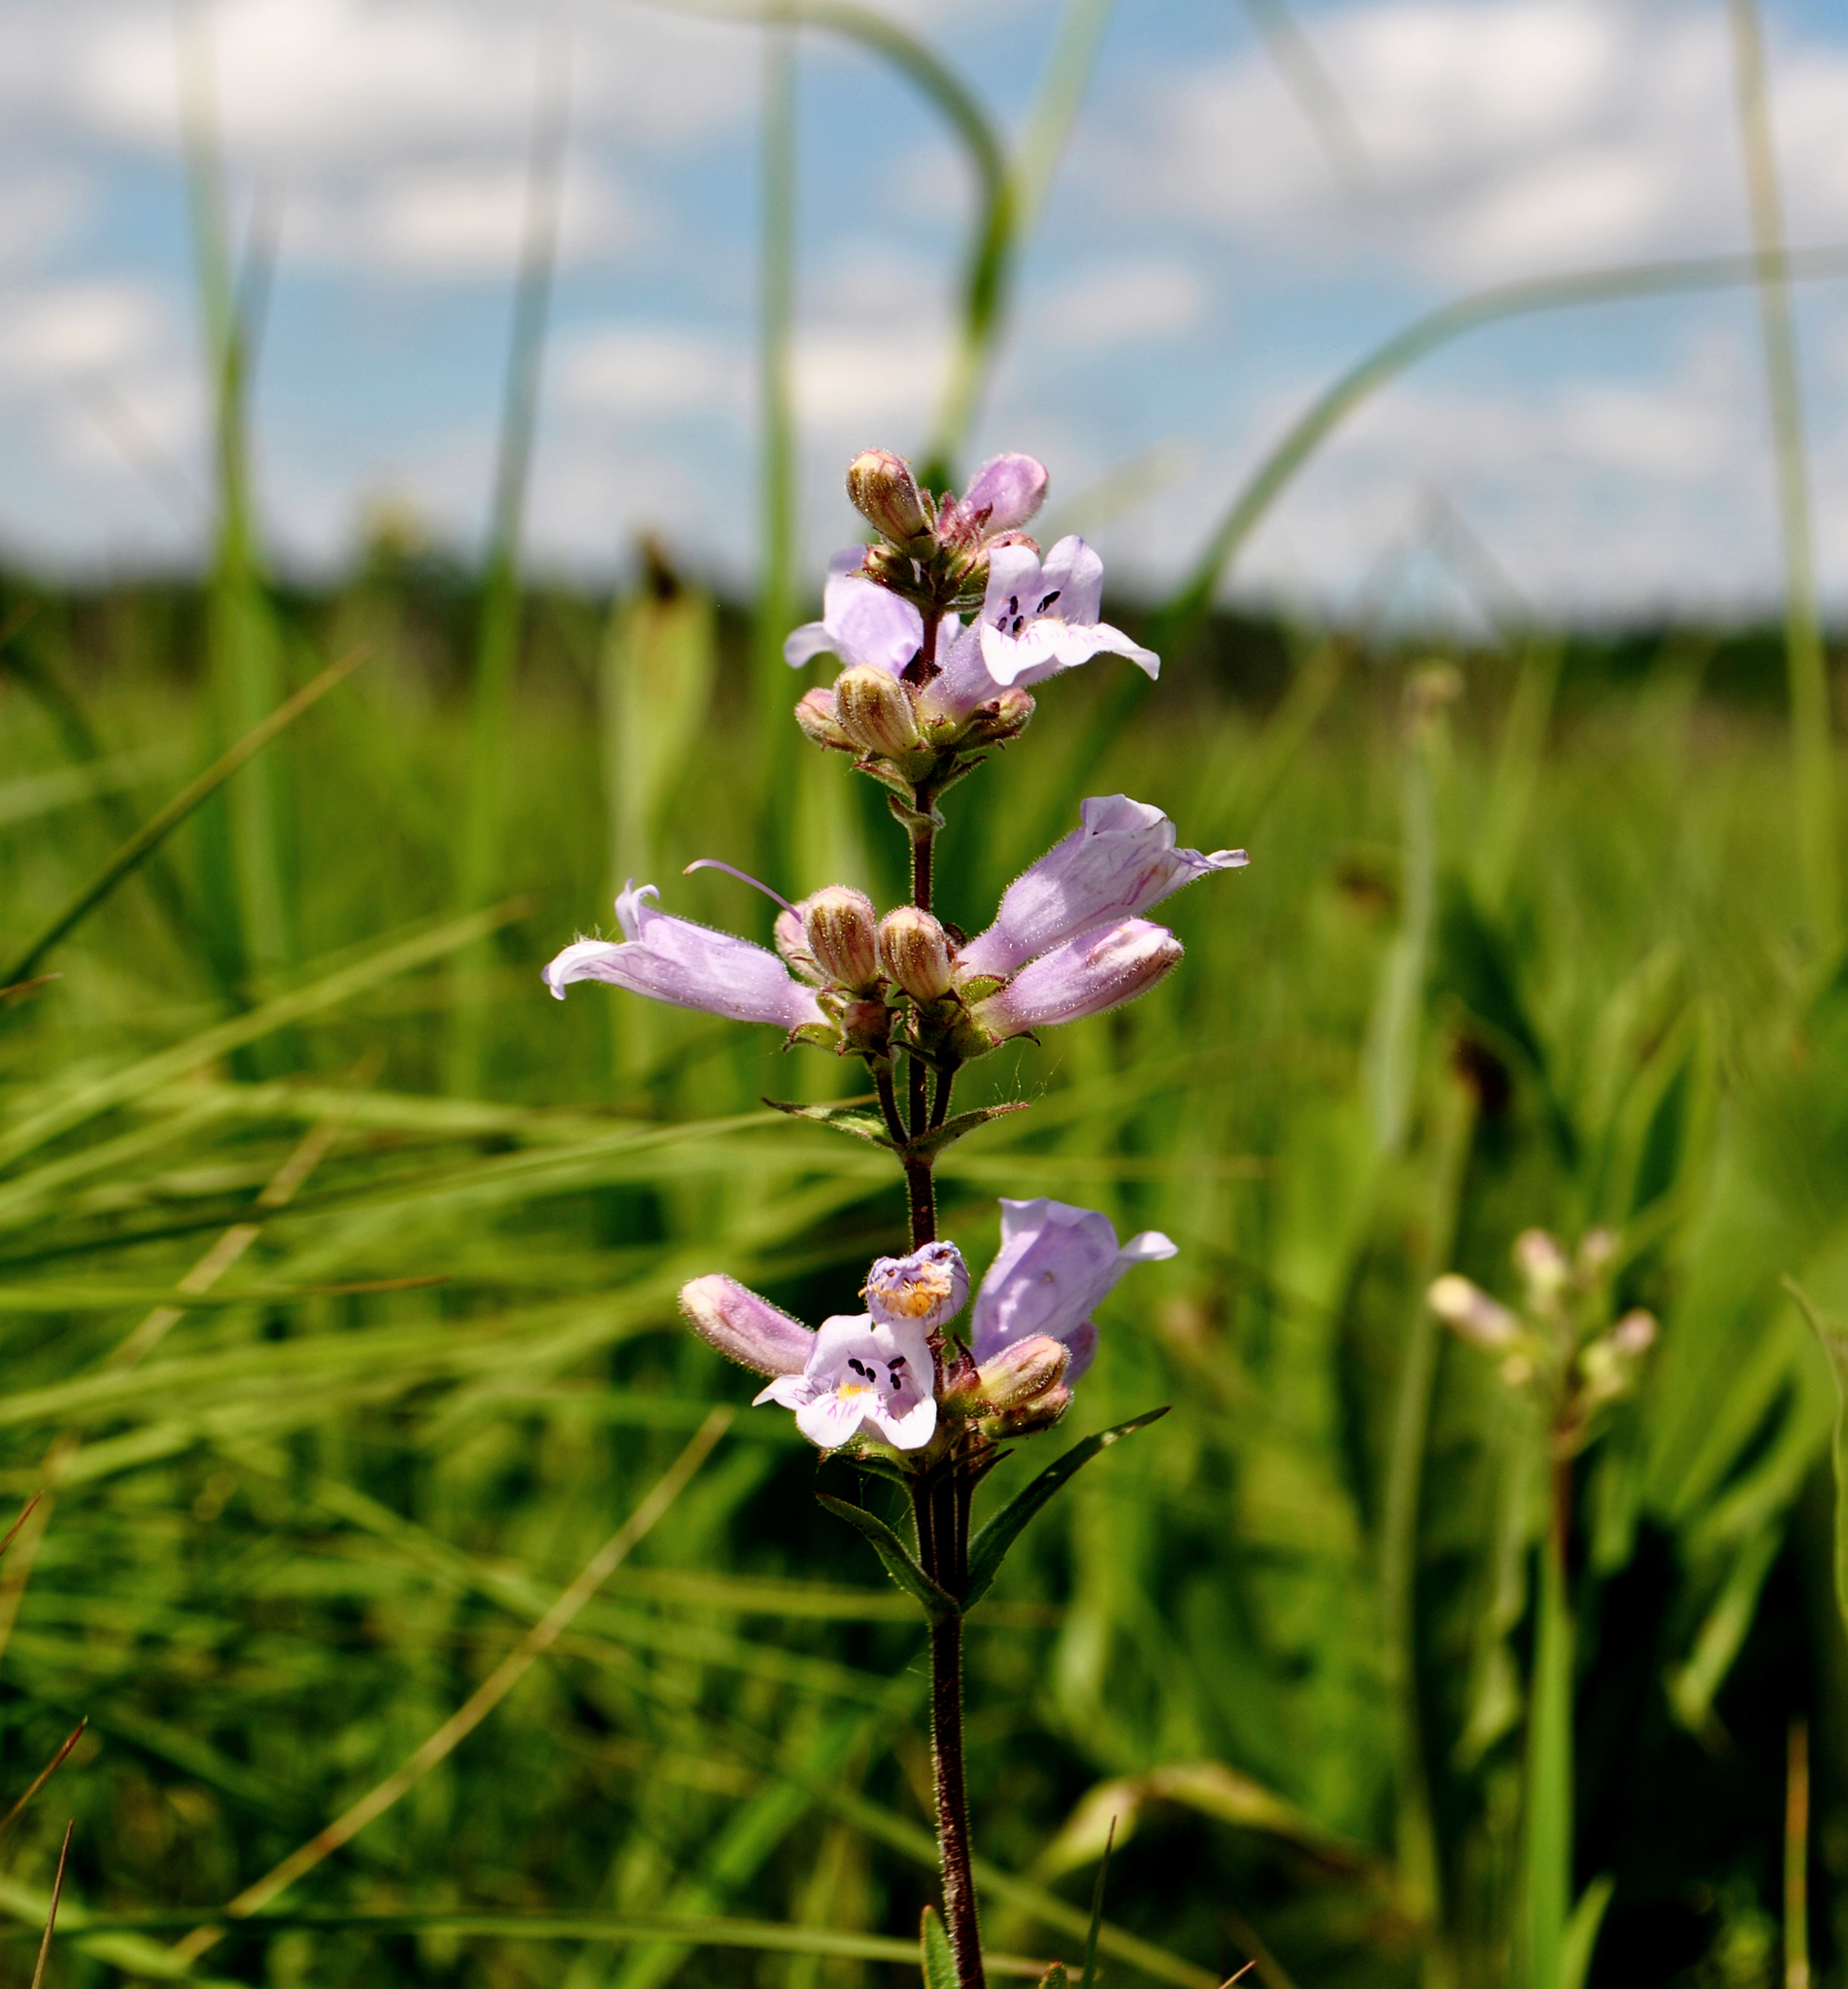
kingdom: Plantae
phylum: Tracheophyta
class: Magnoliopsida
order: Lamiales
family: Plantaginaceae
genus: Penstemon
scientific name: Penstemon gracilis
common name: Slender beardtongue
